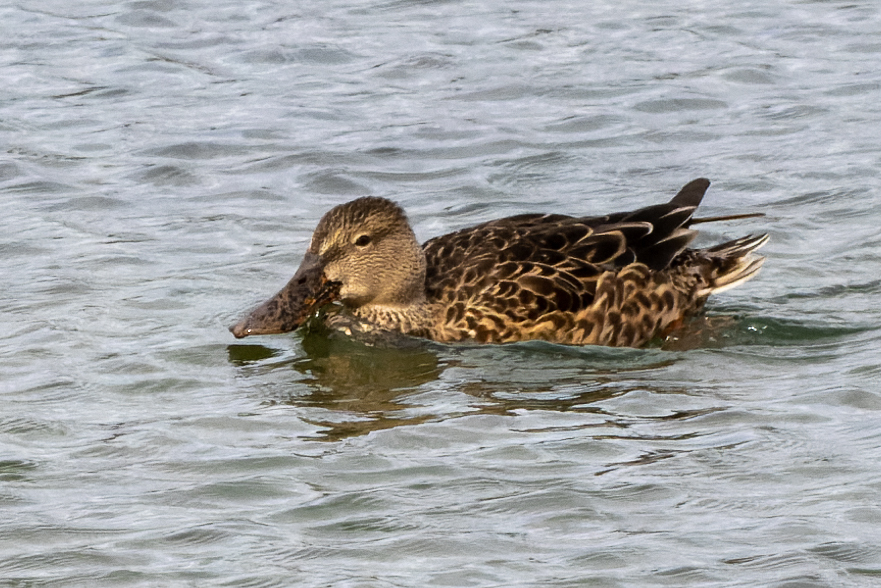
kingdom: Animalia
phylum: Chordata
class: Aves
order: Anseriformes
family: Anatidae
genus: Spatula
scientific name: Spatula clypeata
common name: Northern shoveler
